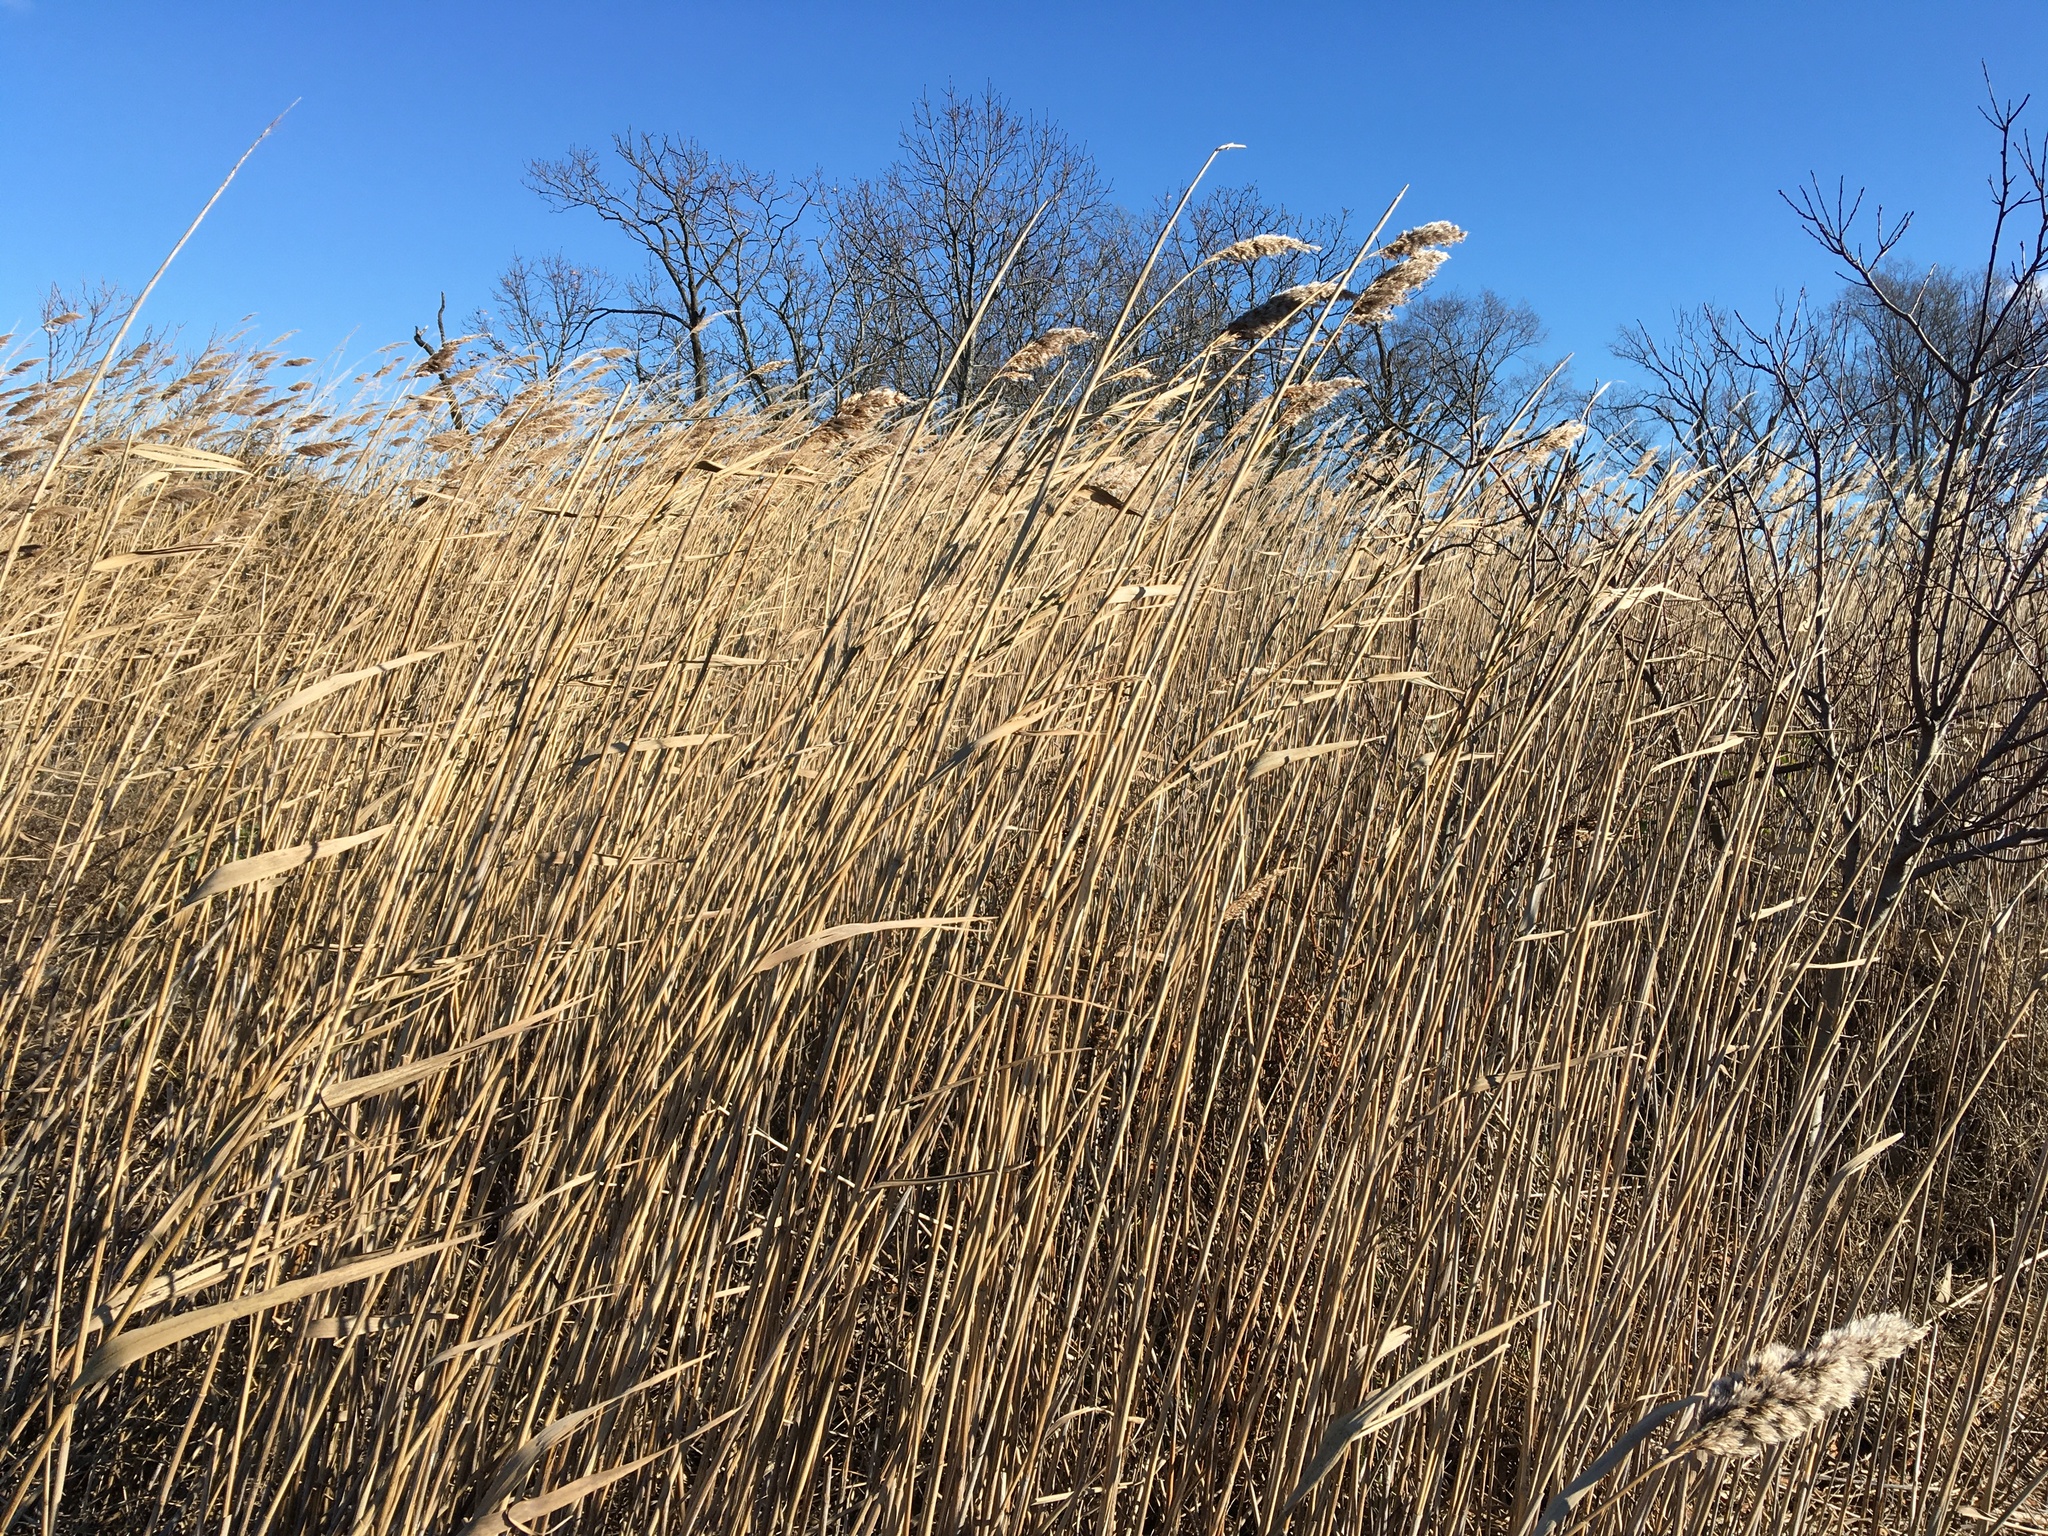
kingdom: Plantae
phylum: Tracheophyta
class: Liliopsida
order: Poales
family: Poaceae
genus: Phragmites
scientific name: Phragmites australis
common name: Common reed
